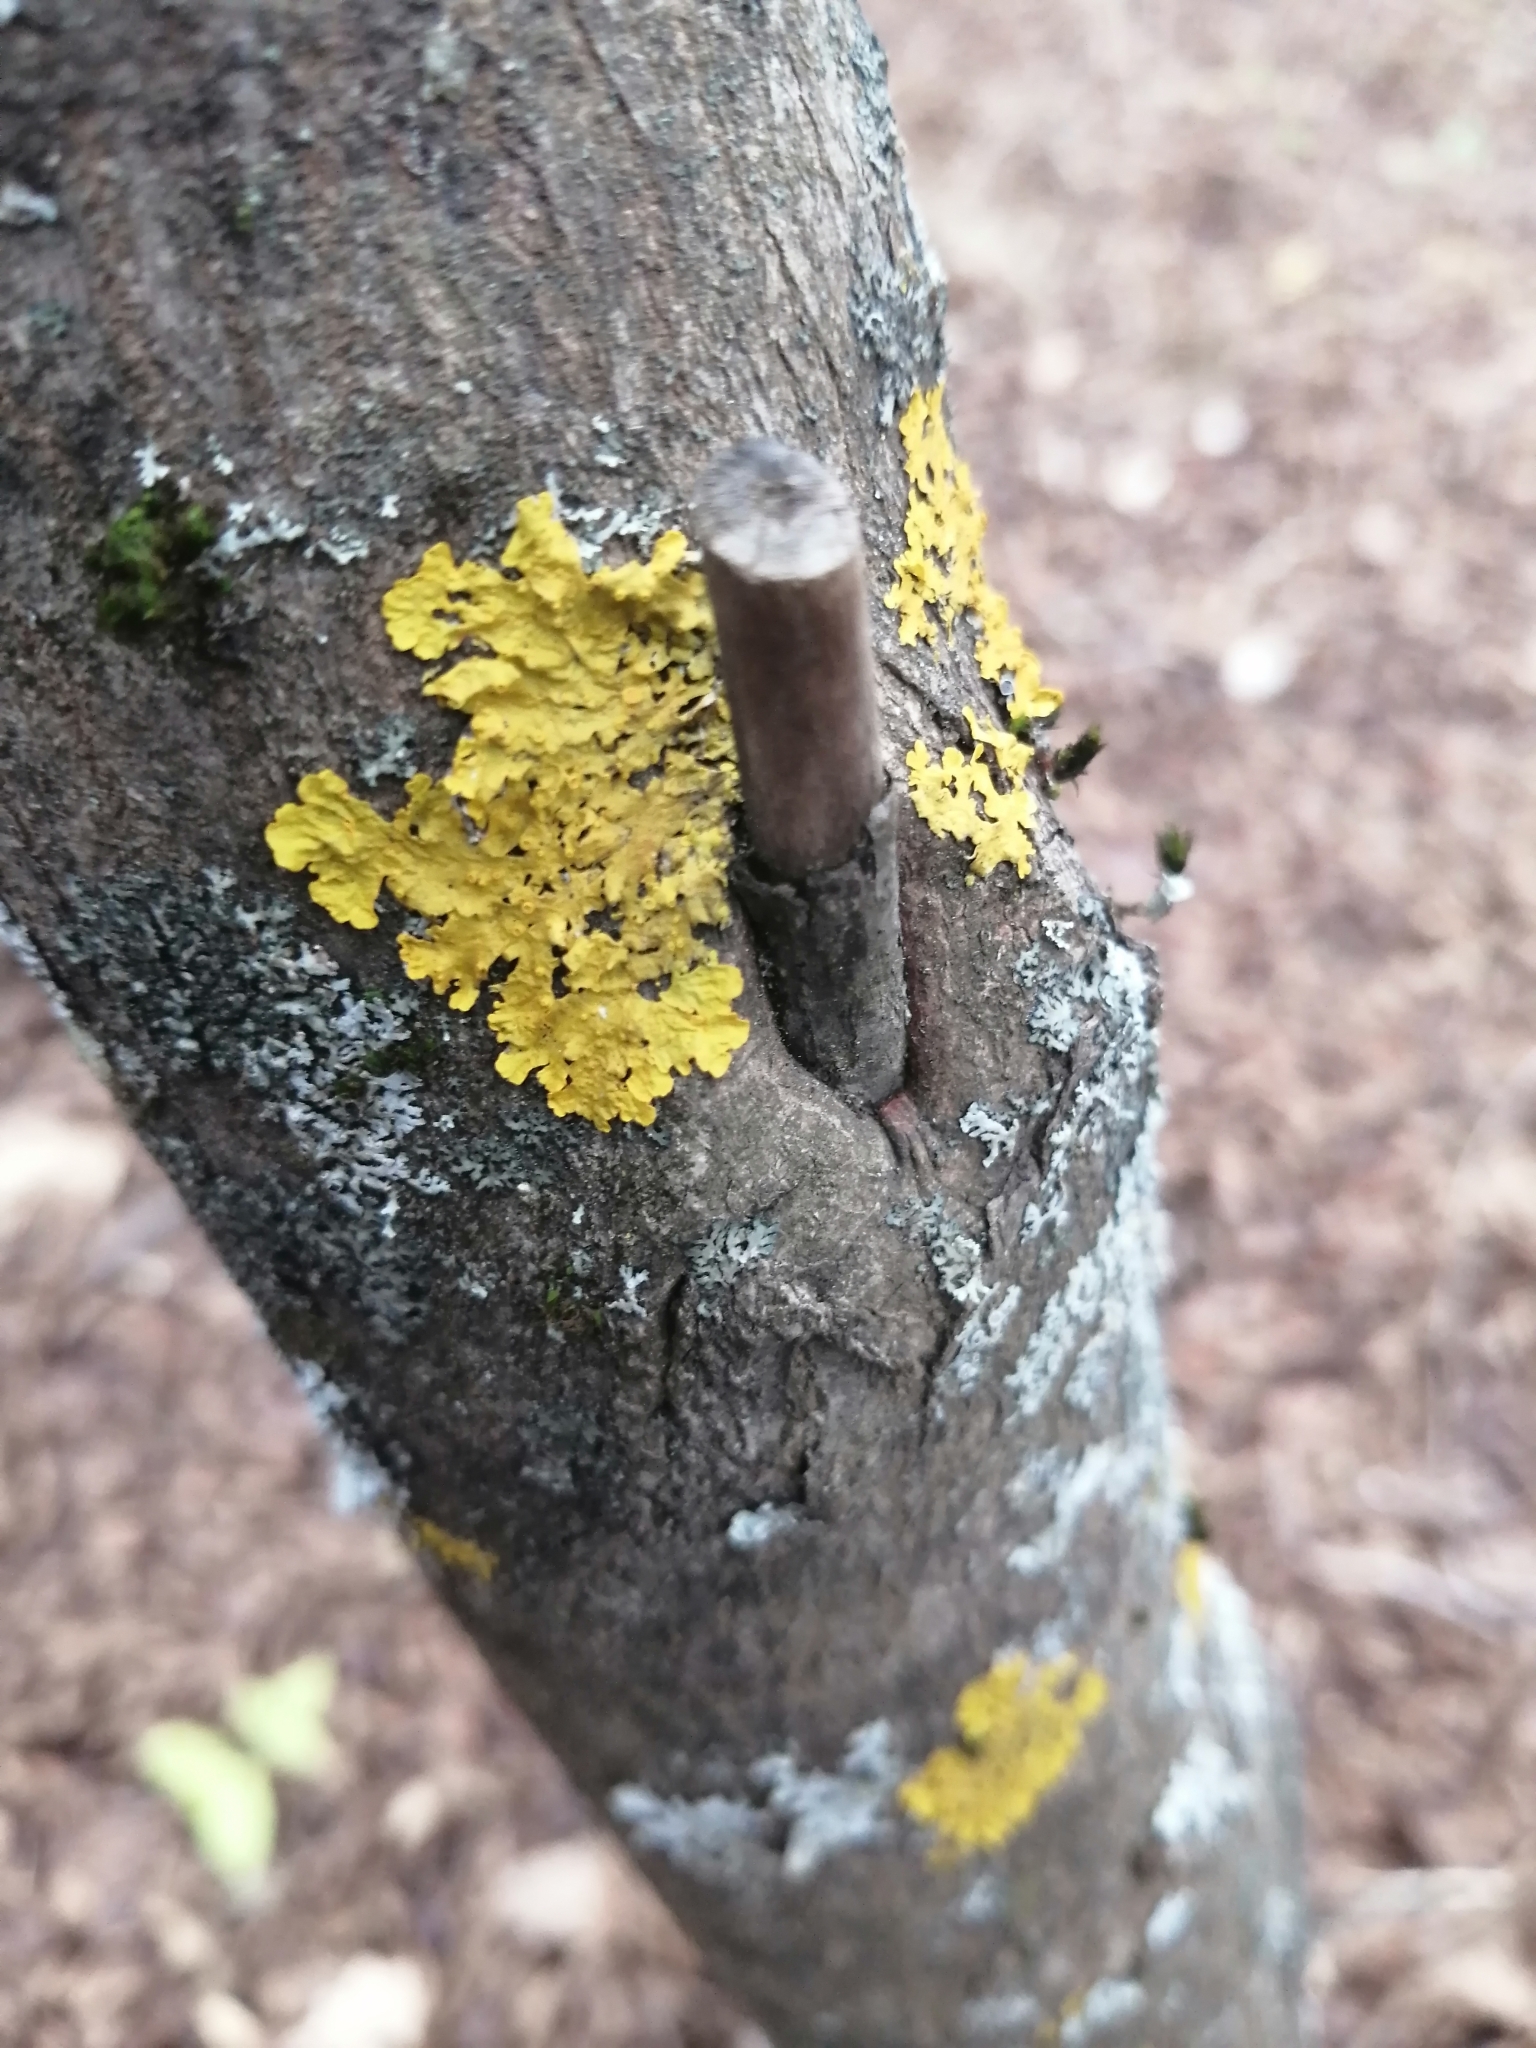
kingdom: Fungi
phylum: Ascomycota
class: Lecanoromycetes
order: Teloschistales
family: Teloschistaceae
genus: Xanthoria
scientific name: Xanthoria parietina
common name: Common orange lichen
